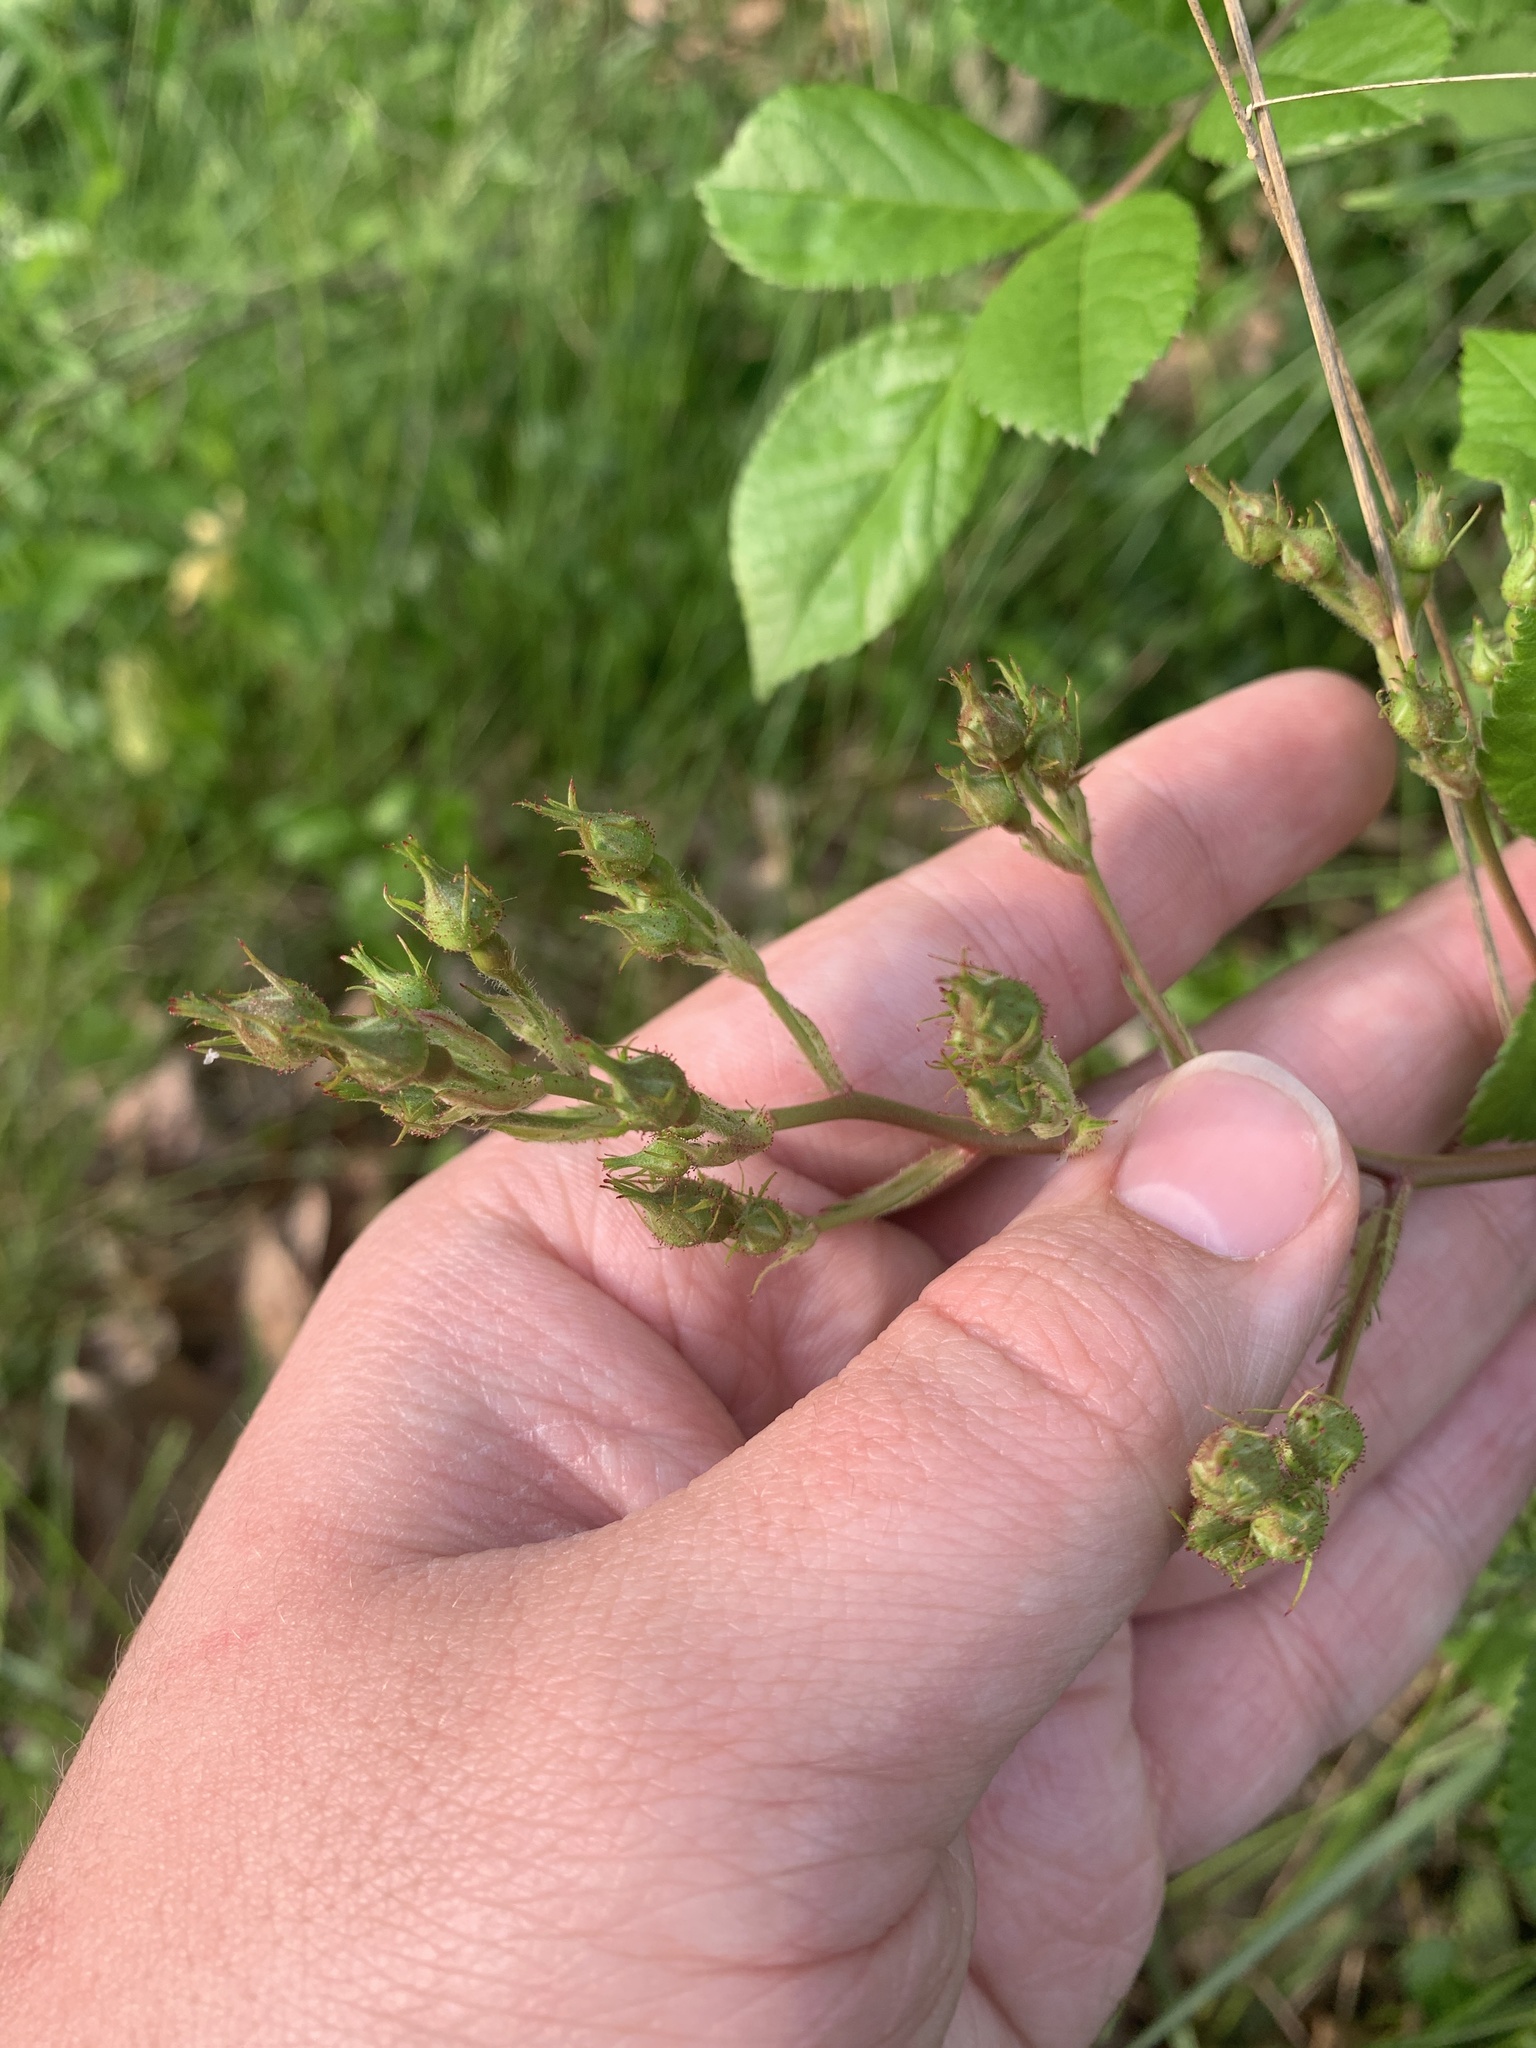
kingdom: Plantae
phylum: Tracheophyta
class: Magnoliopsida
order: Rosales
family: Rosaceae
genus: Rosa
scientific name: Rosa multiflora
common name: Multiflora rose
